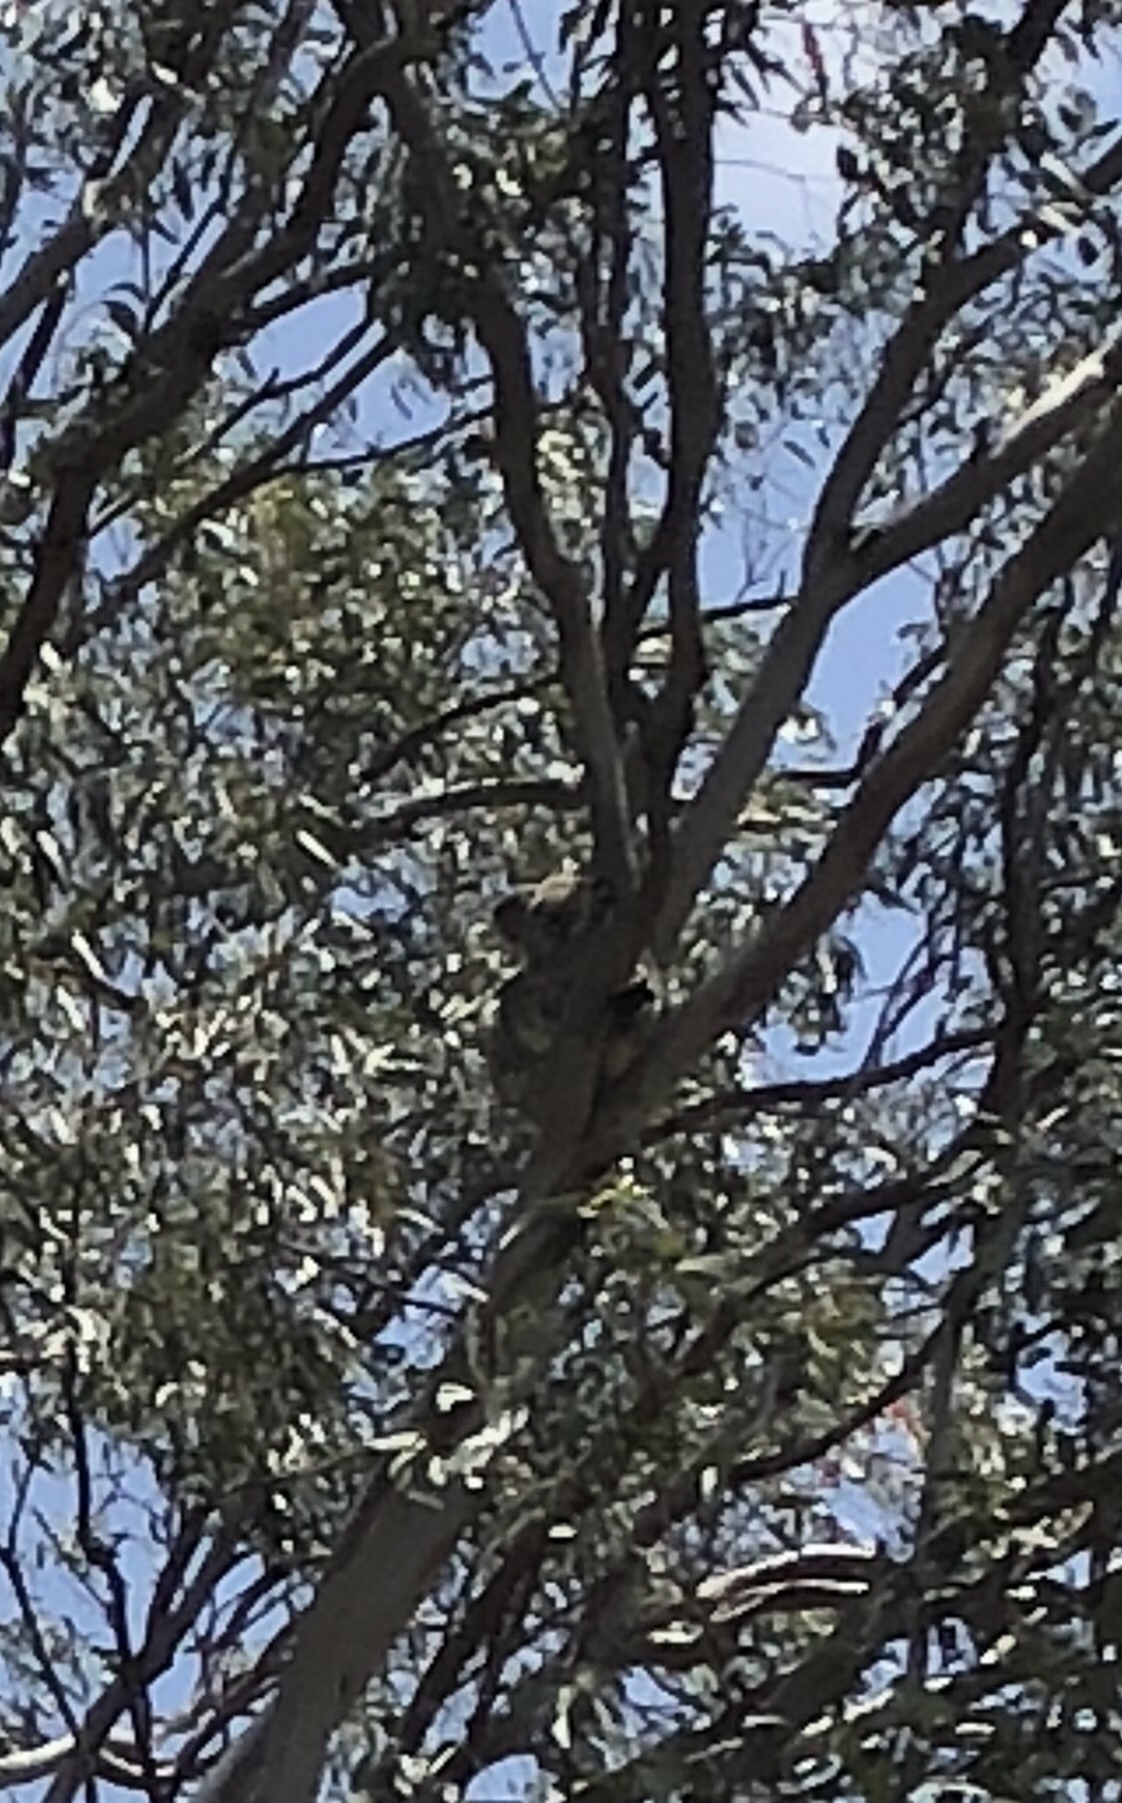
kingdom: Animalia
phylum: Chordata
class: Mammalia
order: Diprotodontia
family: Phascolarctidae
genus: Phascolarctos
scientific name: Phascolarctos cinereus
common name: Koala
